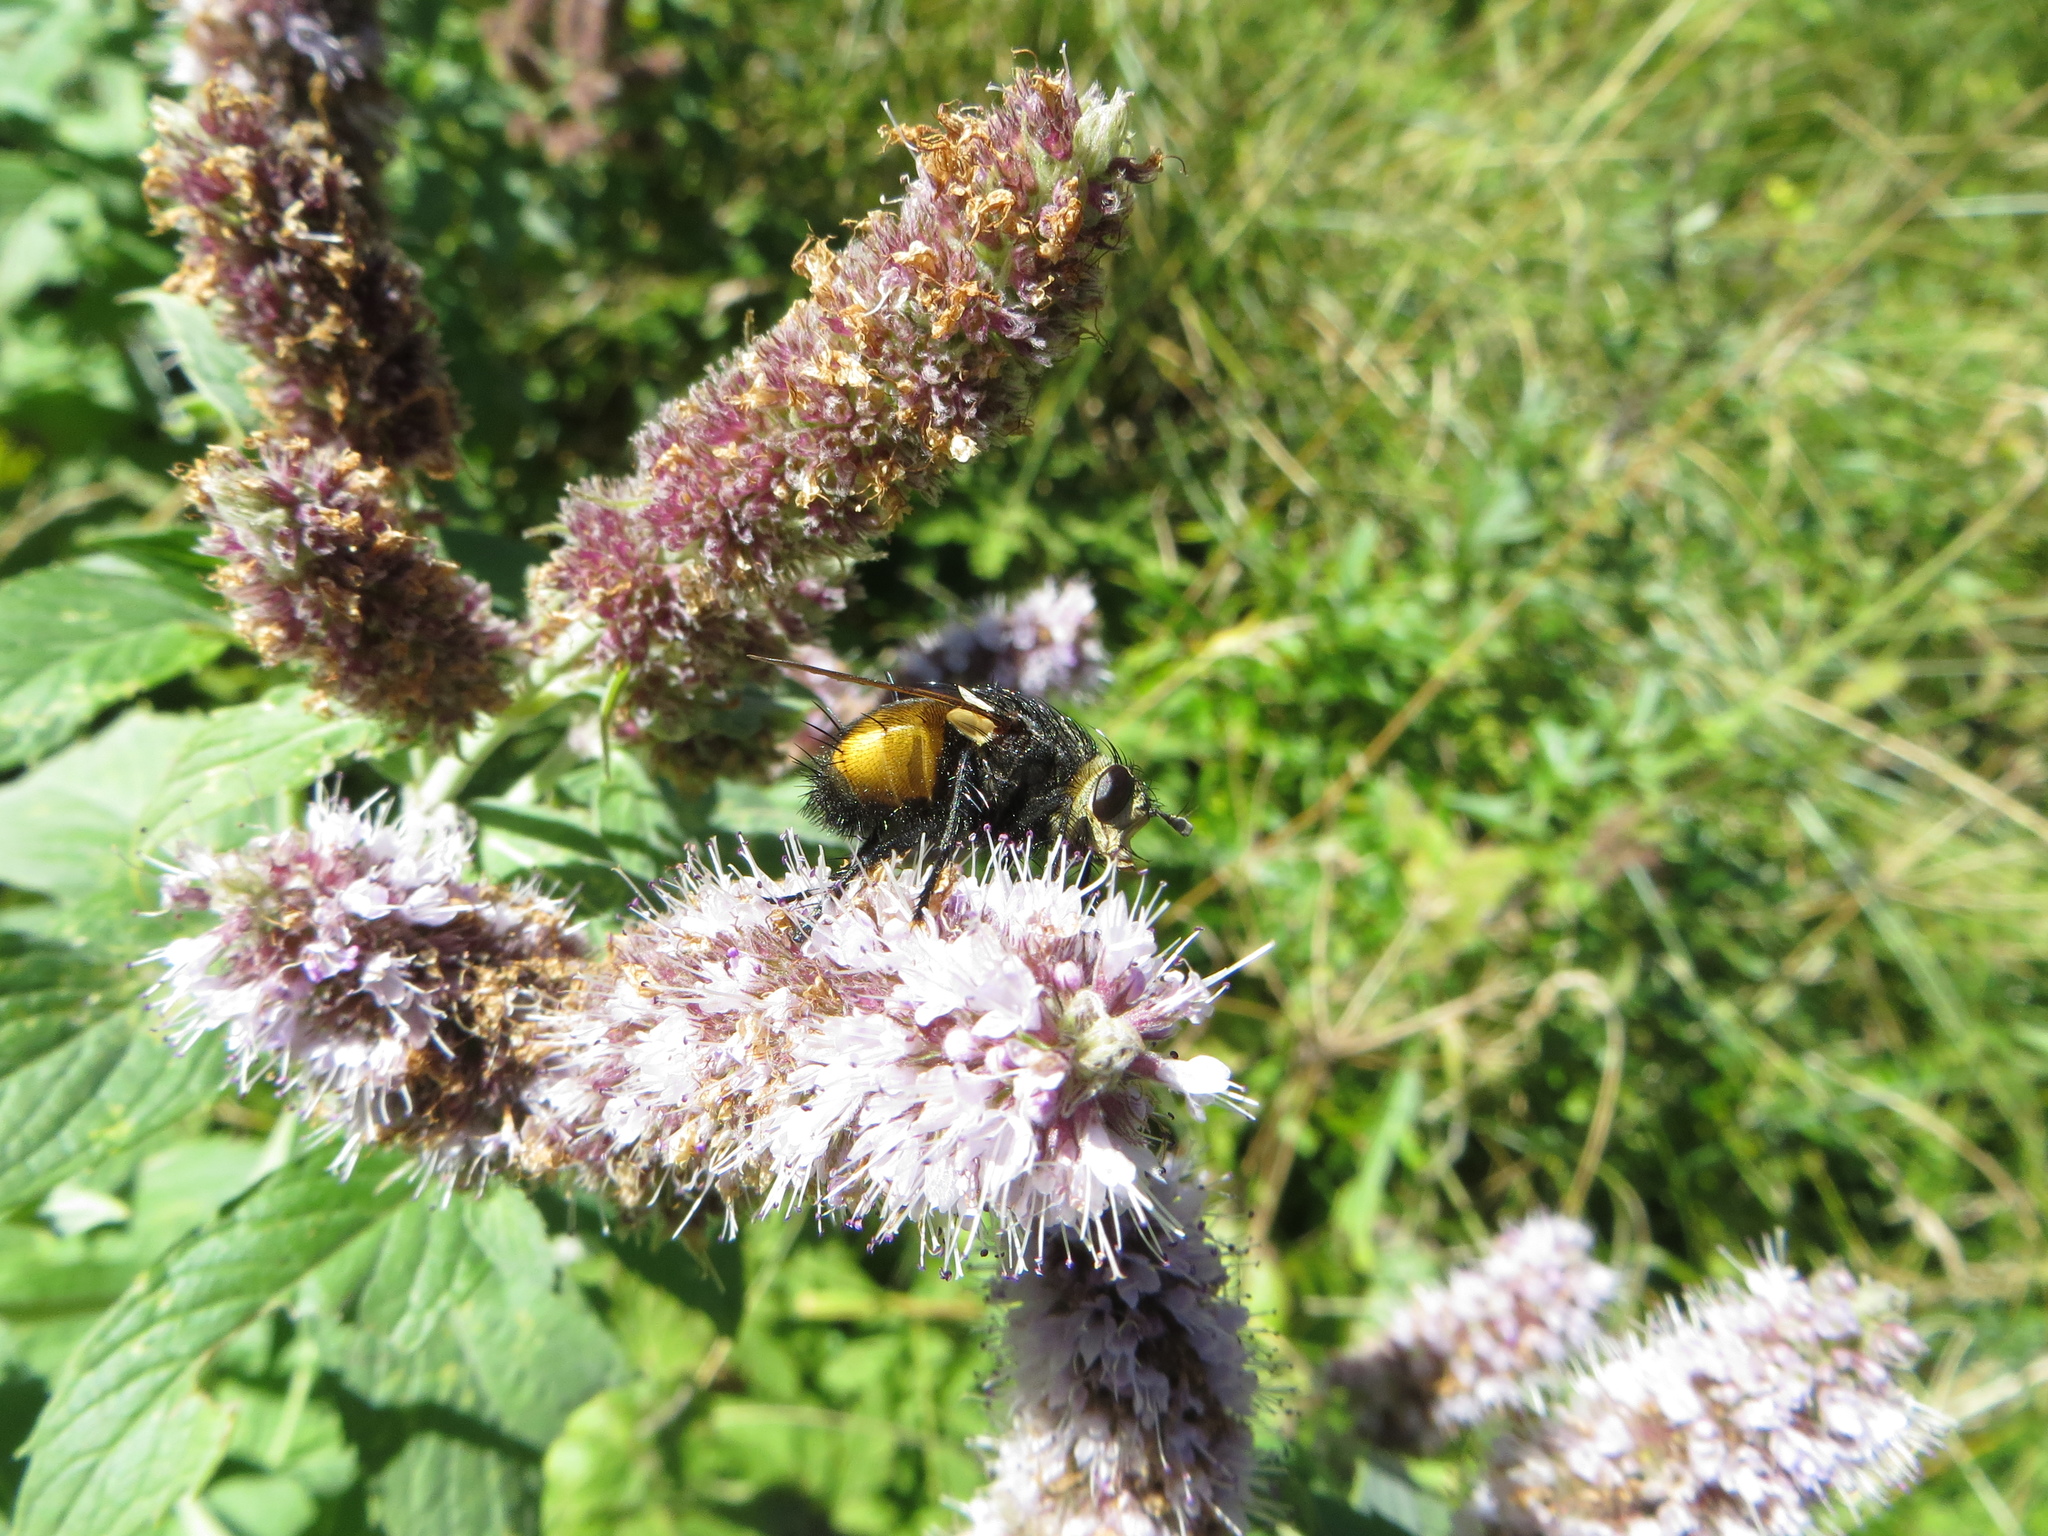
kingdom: Animalia
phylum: Arthropoda
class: Insecta
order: Diptera
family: Tachinidae
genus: Nowickia
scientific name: Nowickia ferox
